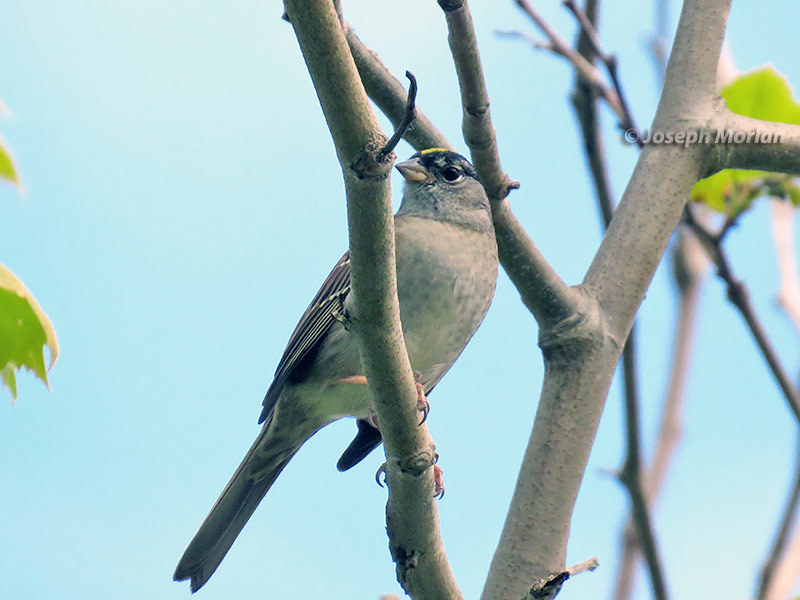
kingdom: Animalia
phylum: Chordata
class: Aves
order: Passeriformes
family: Passerellidae
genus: Zonotrichia
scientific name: Zonotrichia atricapilla
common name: Golden-crowned sparrow
